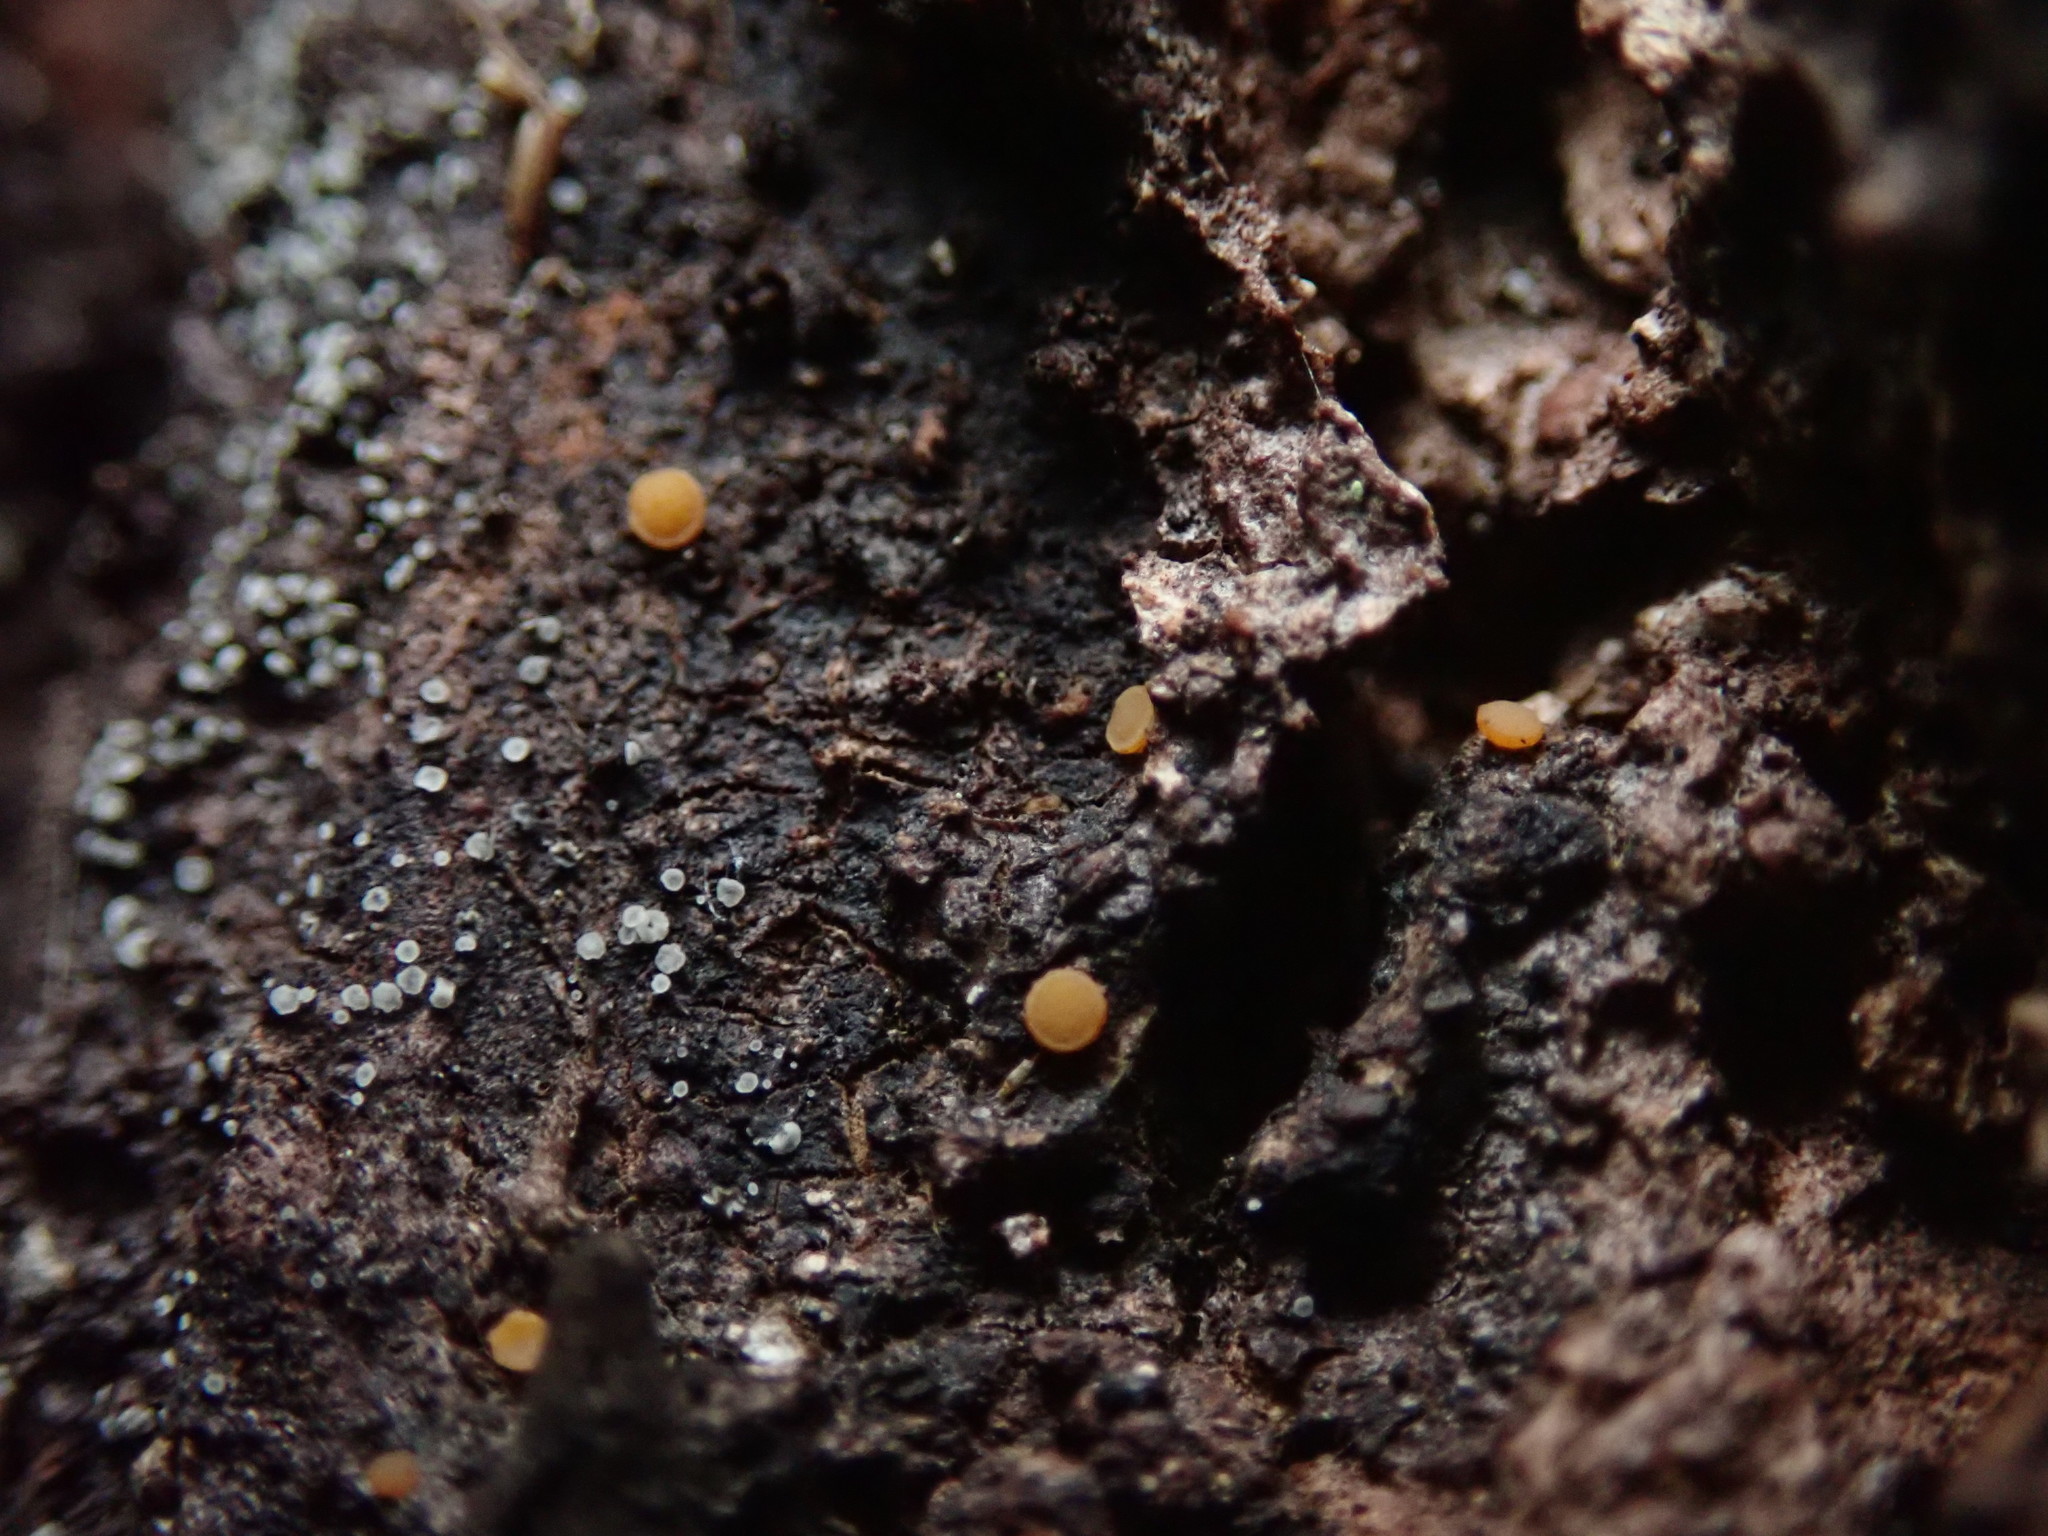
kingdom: Fungi
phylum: Ascomycota
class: Sareomycetes
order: Sareales
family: Sareaceae
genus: Sarea
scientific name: Sarea resinae
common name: Sarea lichen
